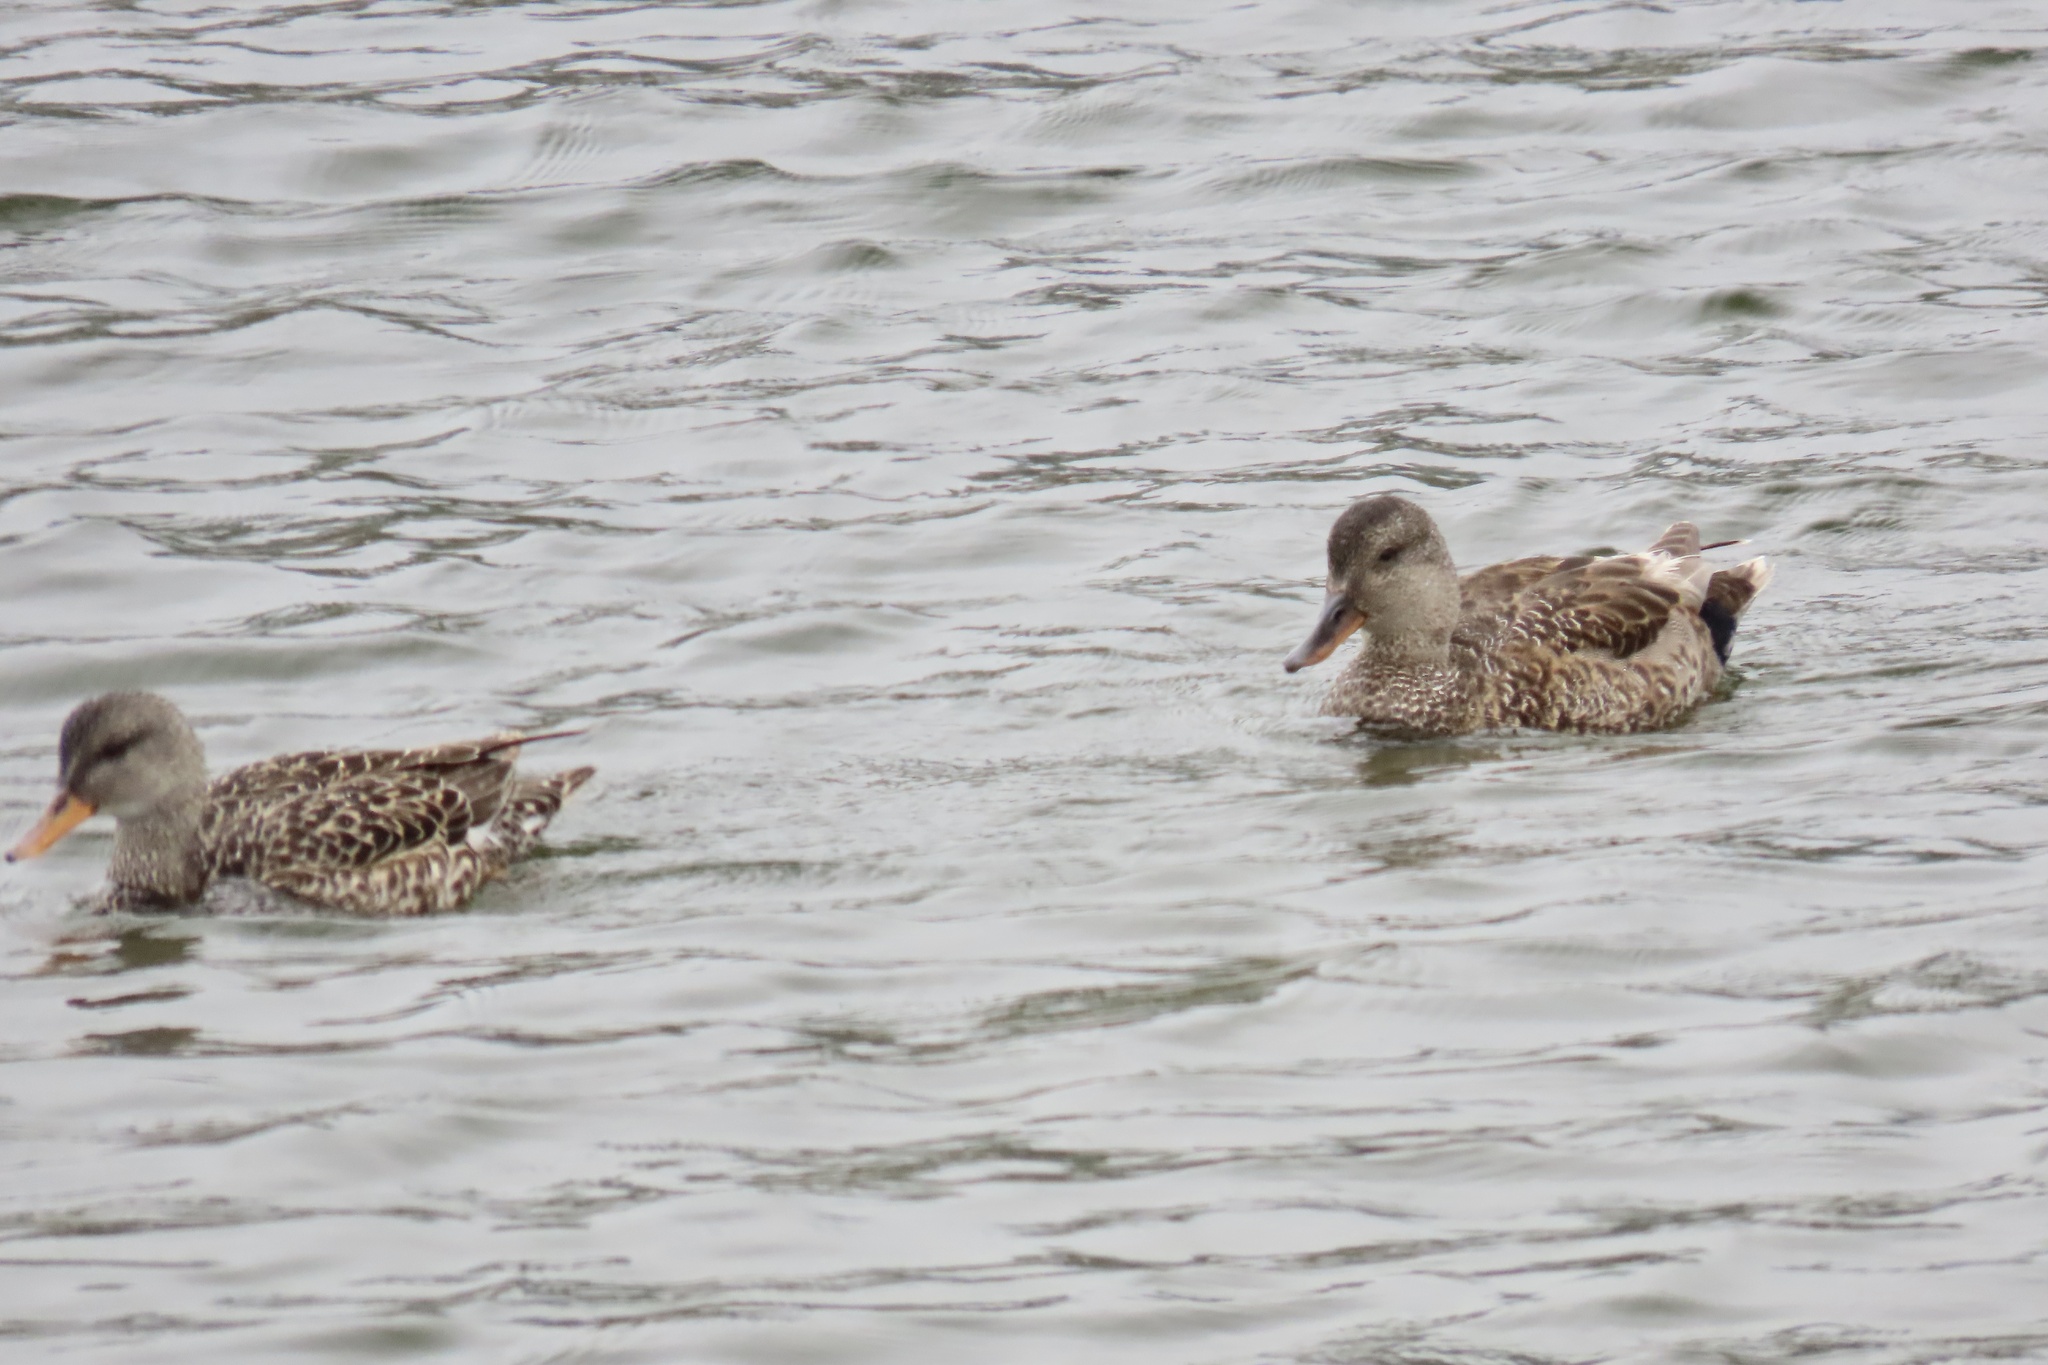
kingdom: Animalia
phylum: Chordata
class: Aves
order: Anseriformes
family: Anatidae
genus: Mareca
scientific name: Mareca strepera
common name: Gadwall
